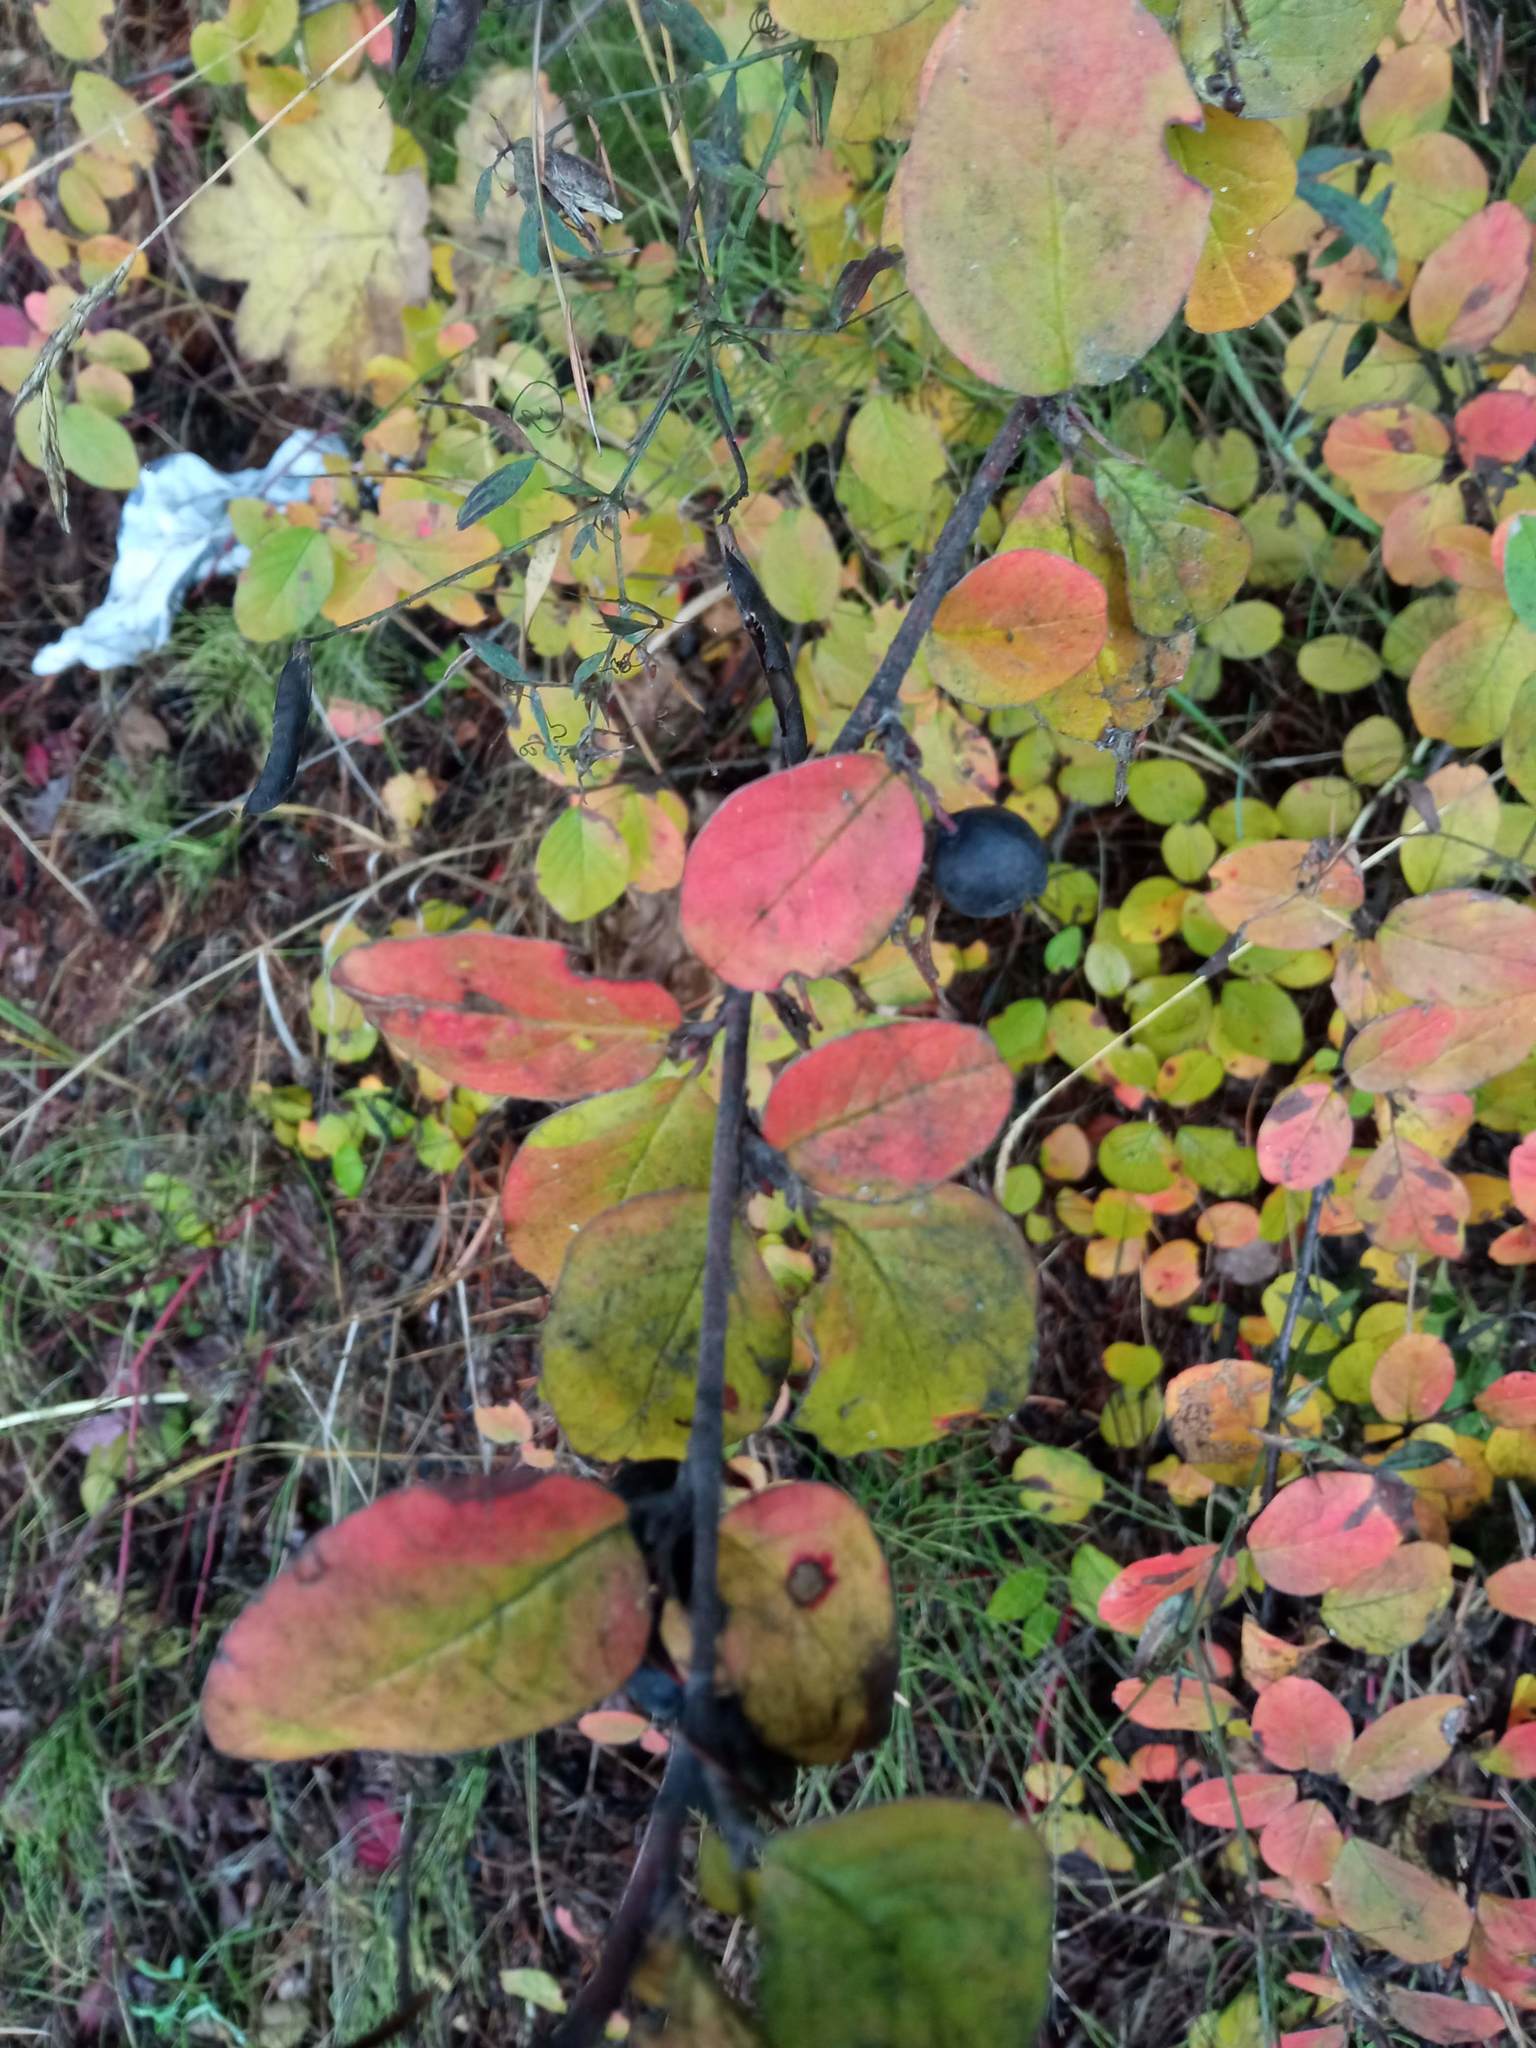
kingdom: Plantae
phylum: Tracheophyta
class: Magnoliopsida
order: Rosales
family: Rosaceae
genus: Cotoneaster
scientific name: Cotoneaster melanocarpus
